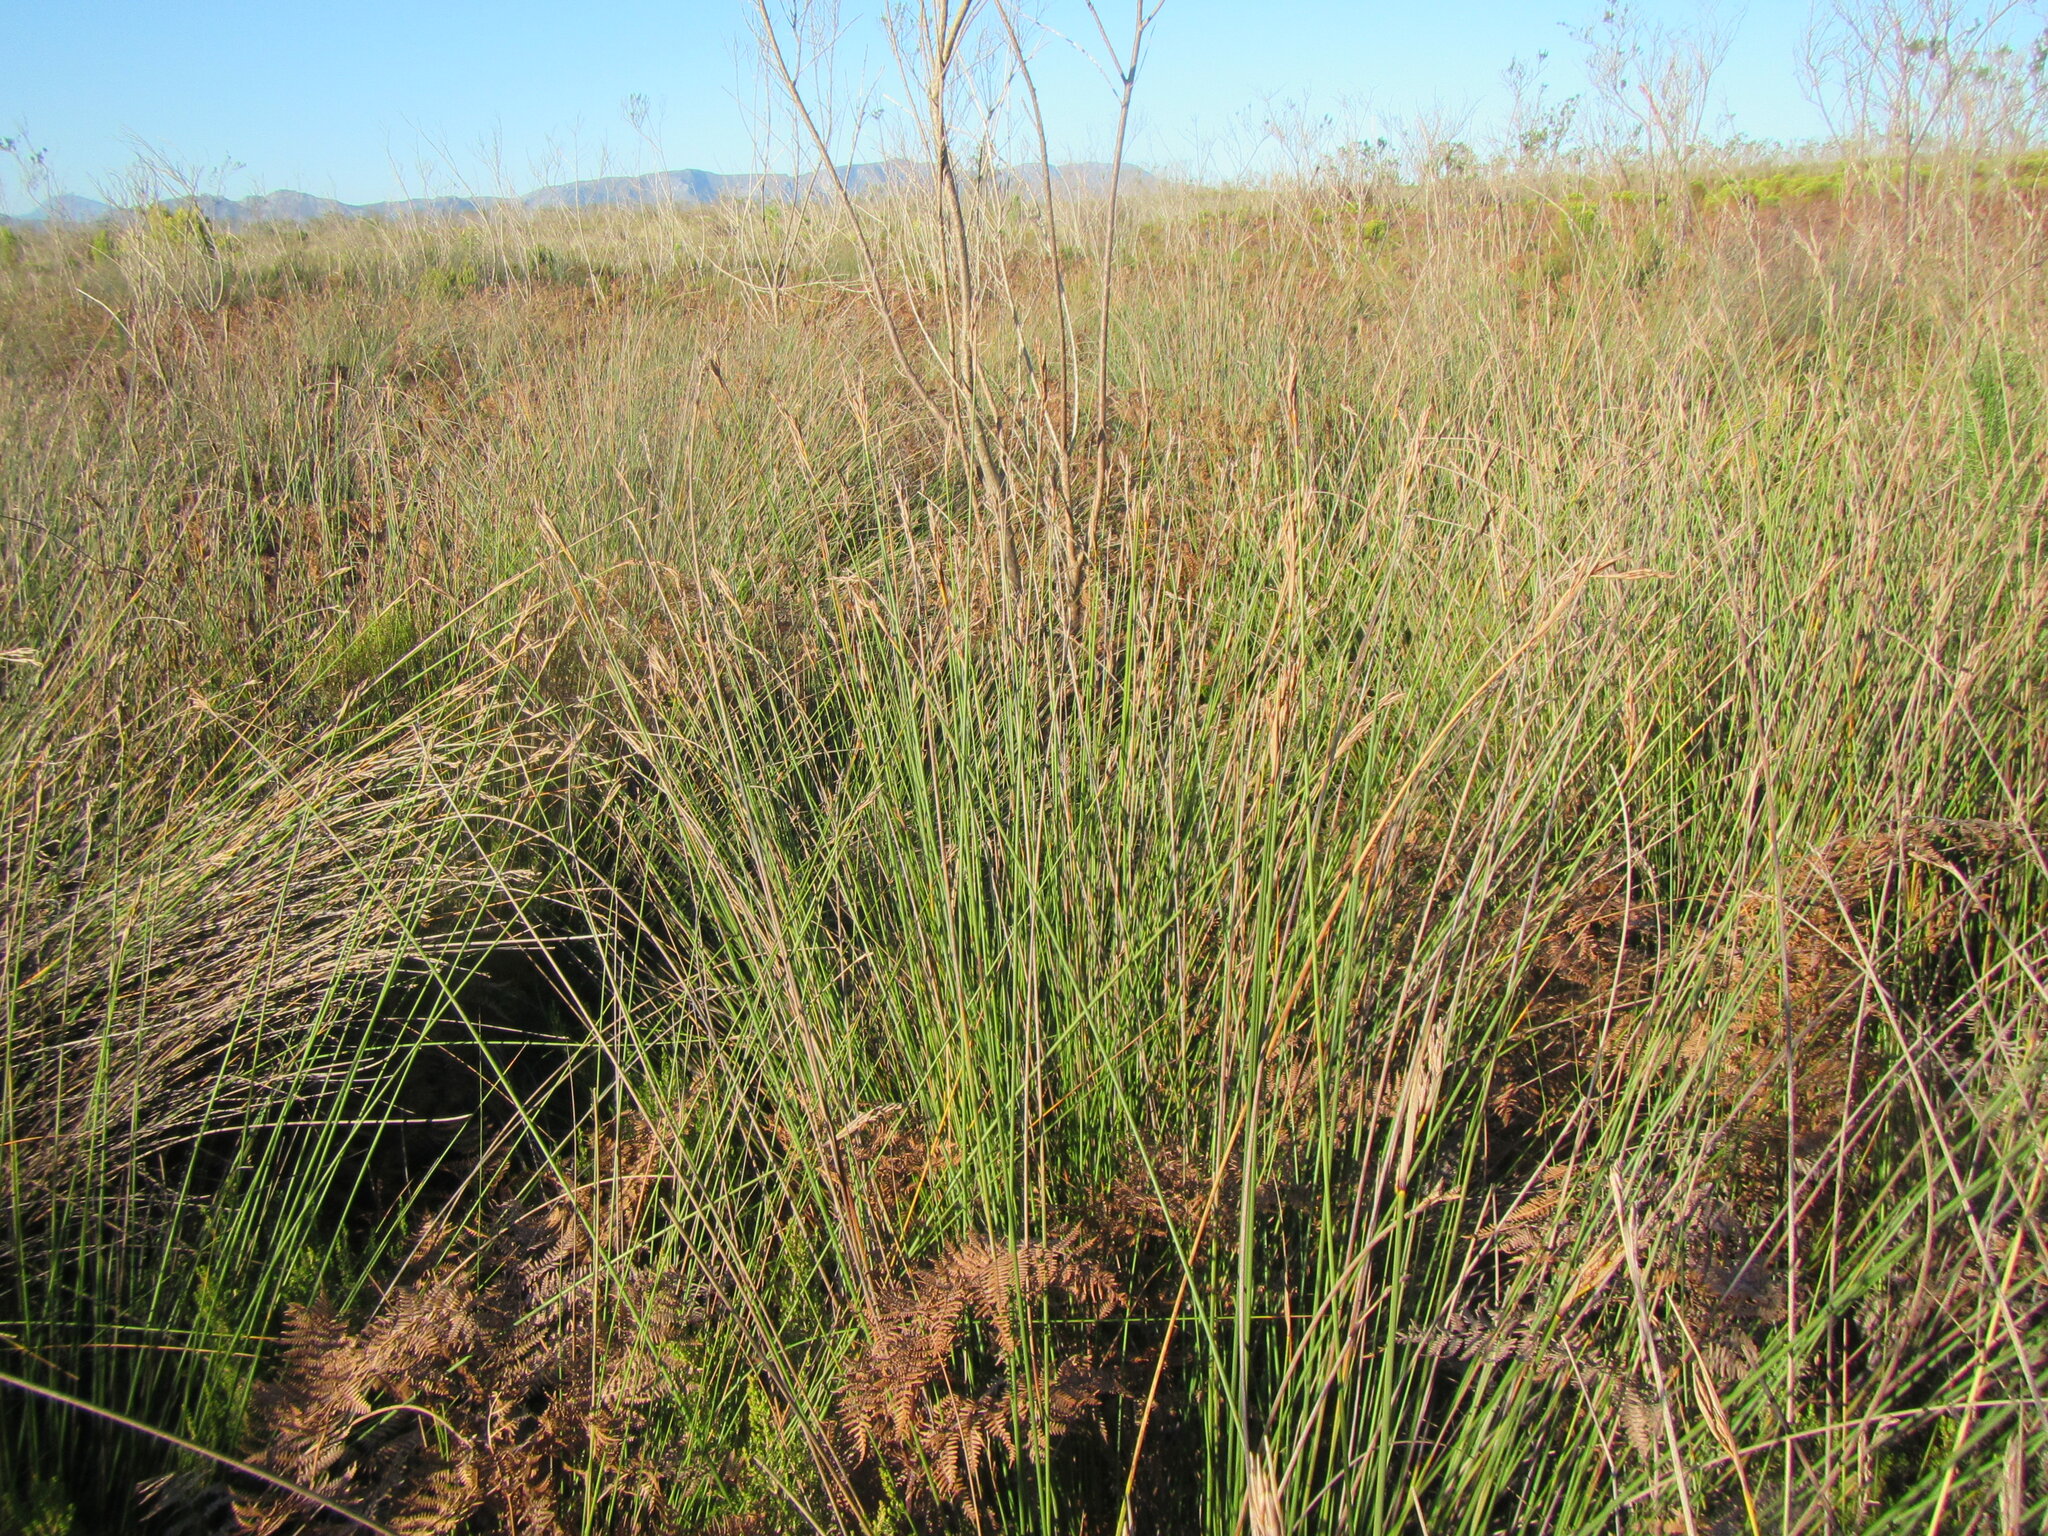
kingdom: Plantae
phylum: Tracheophyta
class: Liliopsida
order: Poales
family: Cyperaceae
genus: Neesenbeckia
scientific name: Neesenbeckia punctoria
